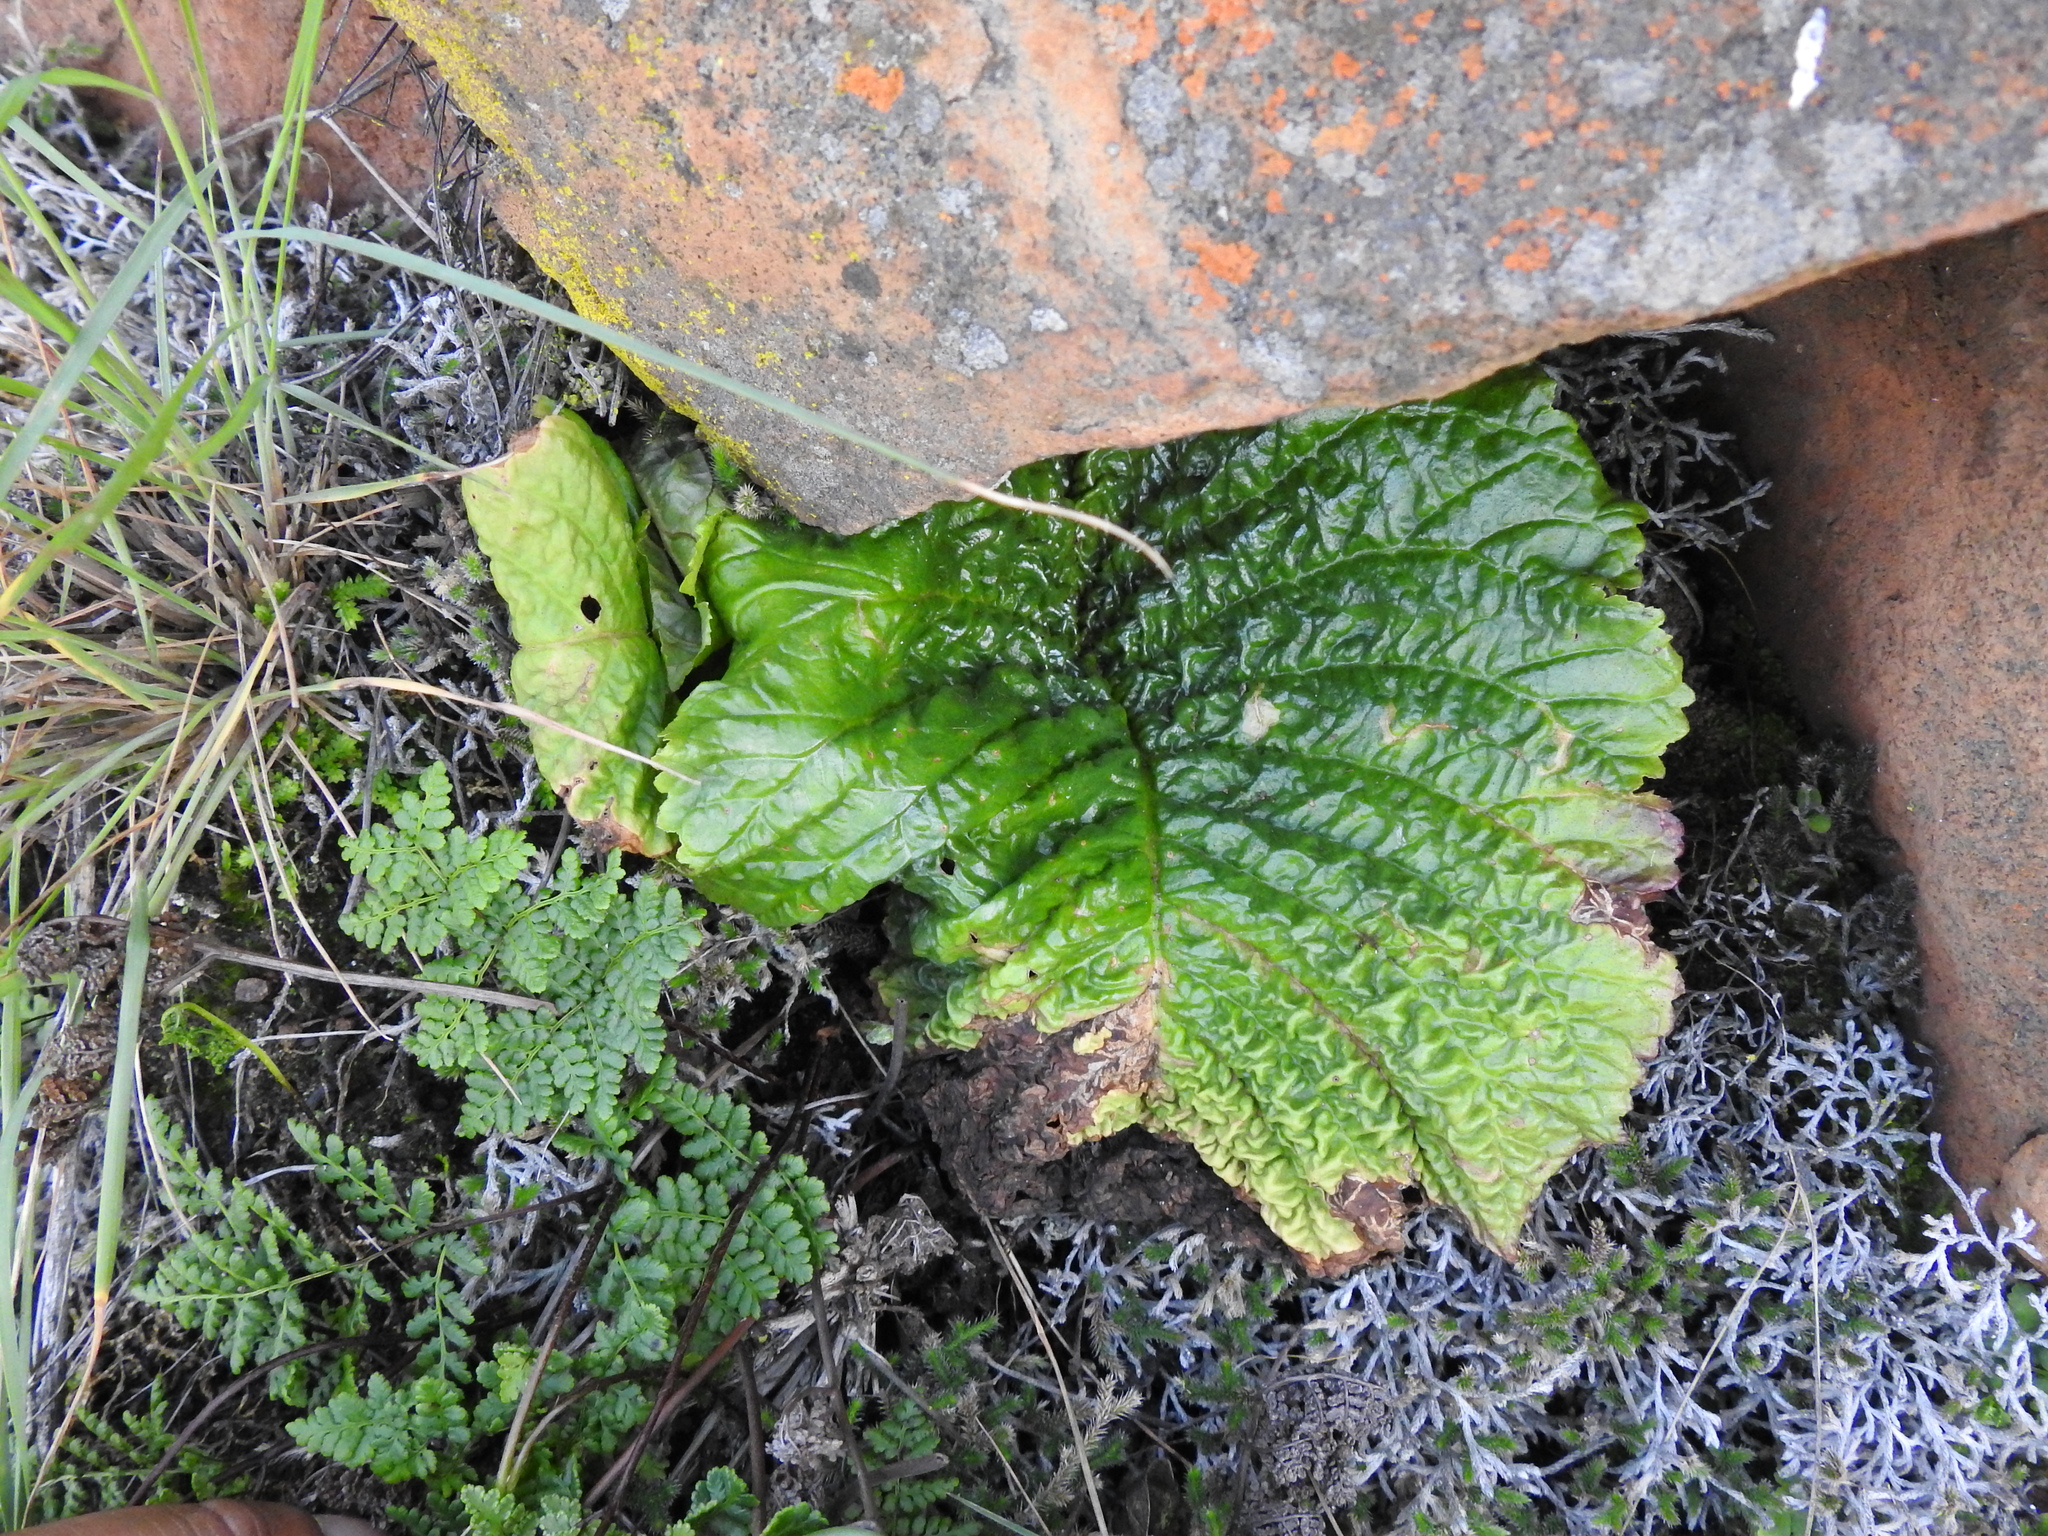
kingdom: Plantae
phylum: Tracheophyta
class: Magnoliopsida
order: Lamiales
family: Gesneriaceae
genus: Streptocarpus
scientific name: Streptocarpus denticulatus
